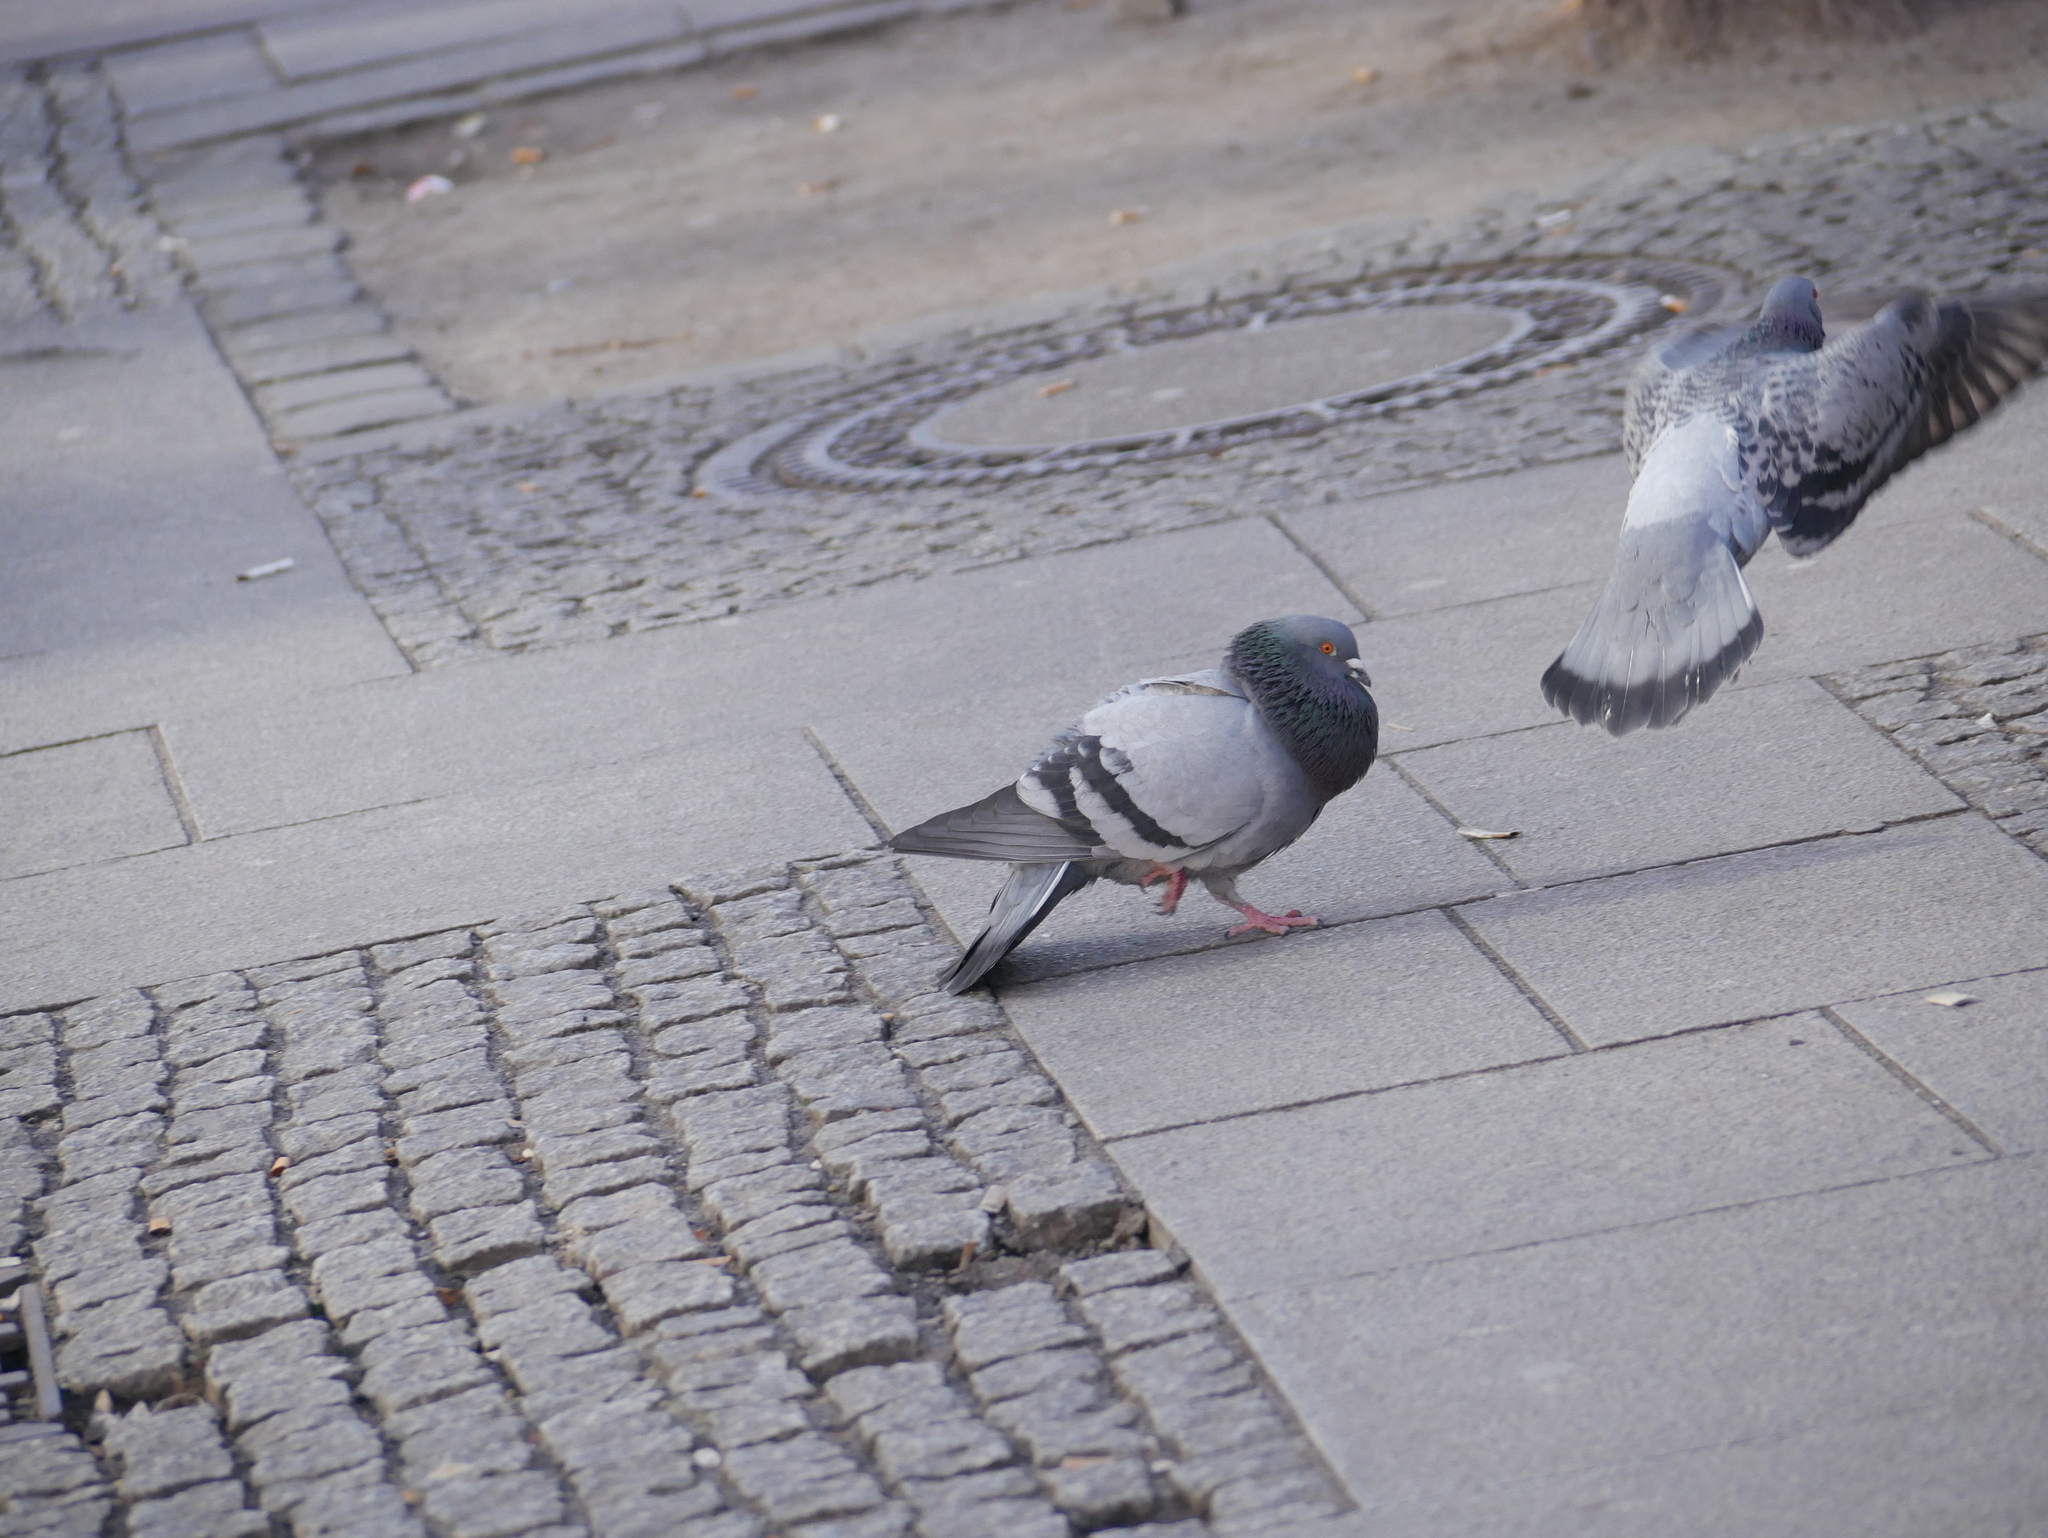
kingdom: Animalia
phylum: Chordata
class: Aves
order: Columbiformes
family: Columbidae
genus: Columba
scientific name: Columba livia
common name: Rock pigeon
